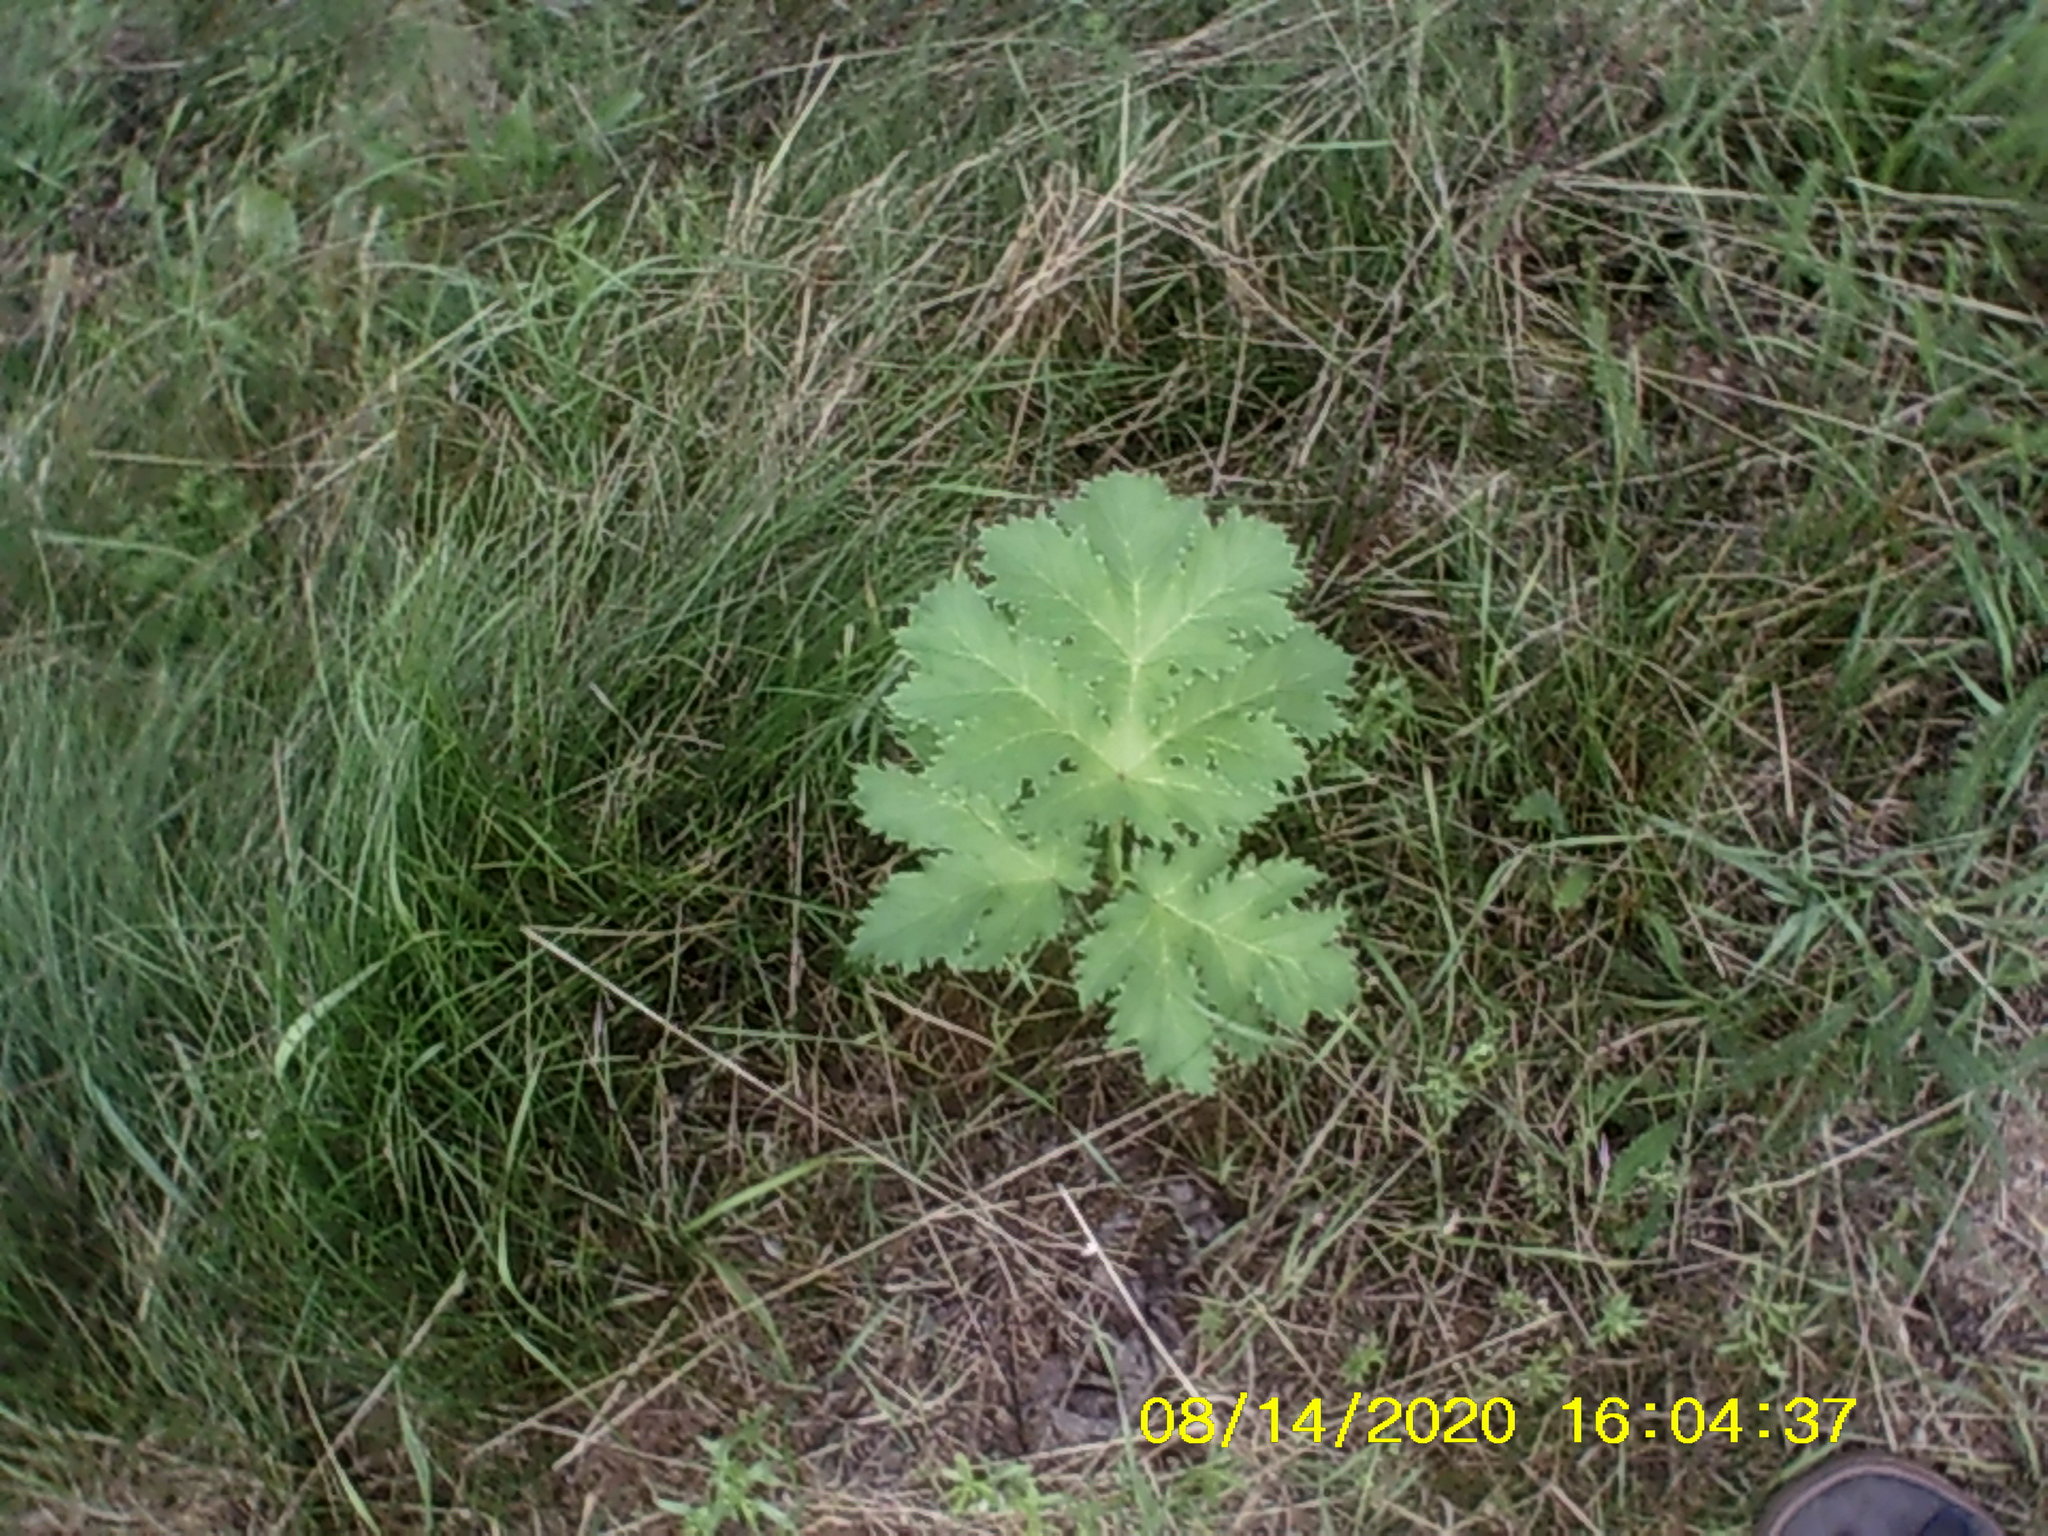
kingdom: Plantae
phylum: Tracheophyta
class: Magnoliopsida
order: Apiales
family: Apiaceae
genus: Heracleum
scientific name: Heracleum sosnowskyi
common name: Sosnowsky's hogweed
